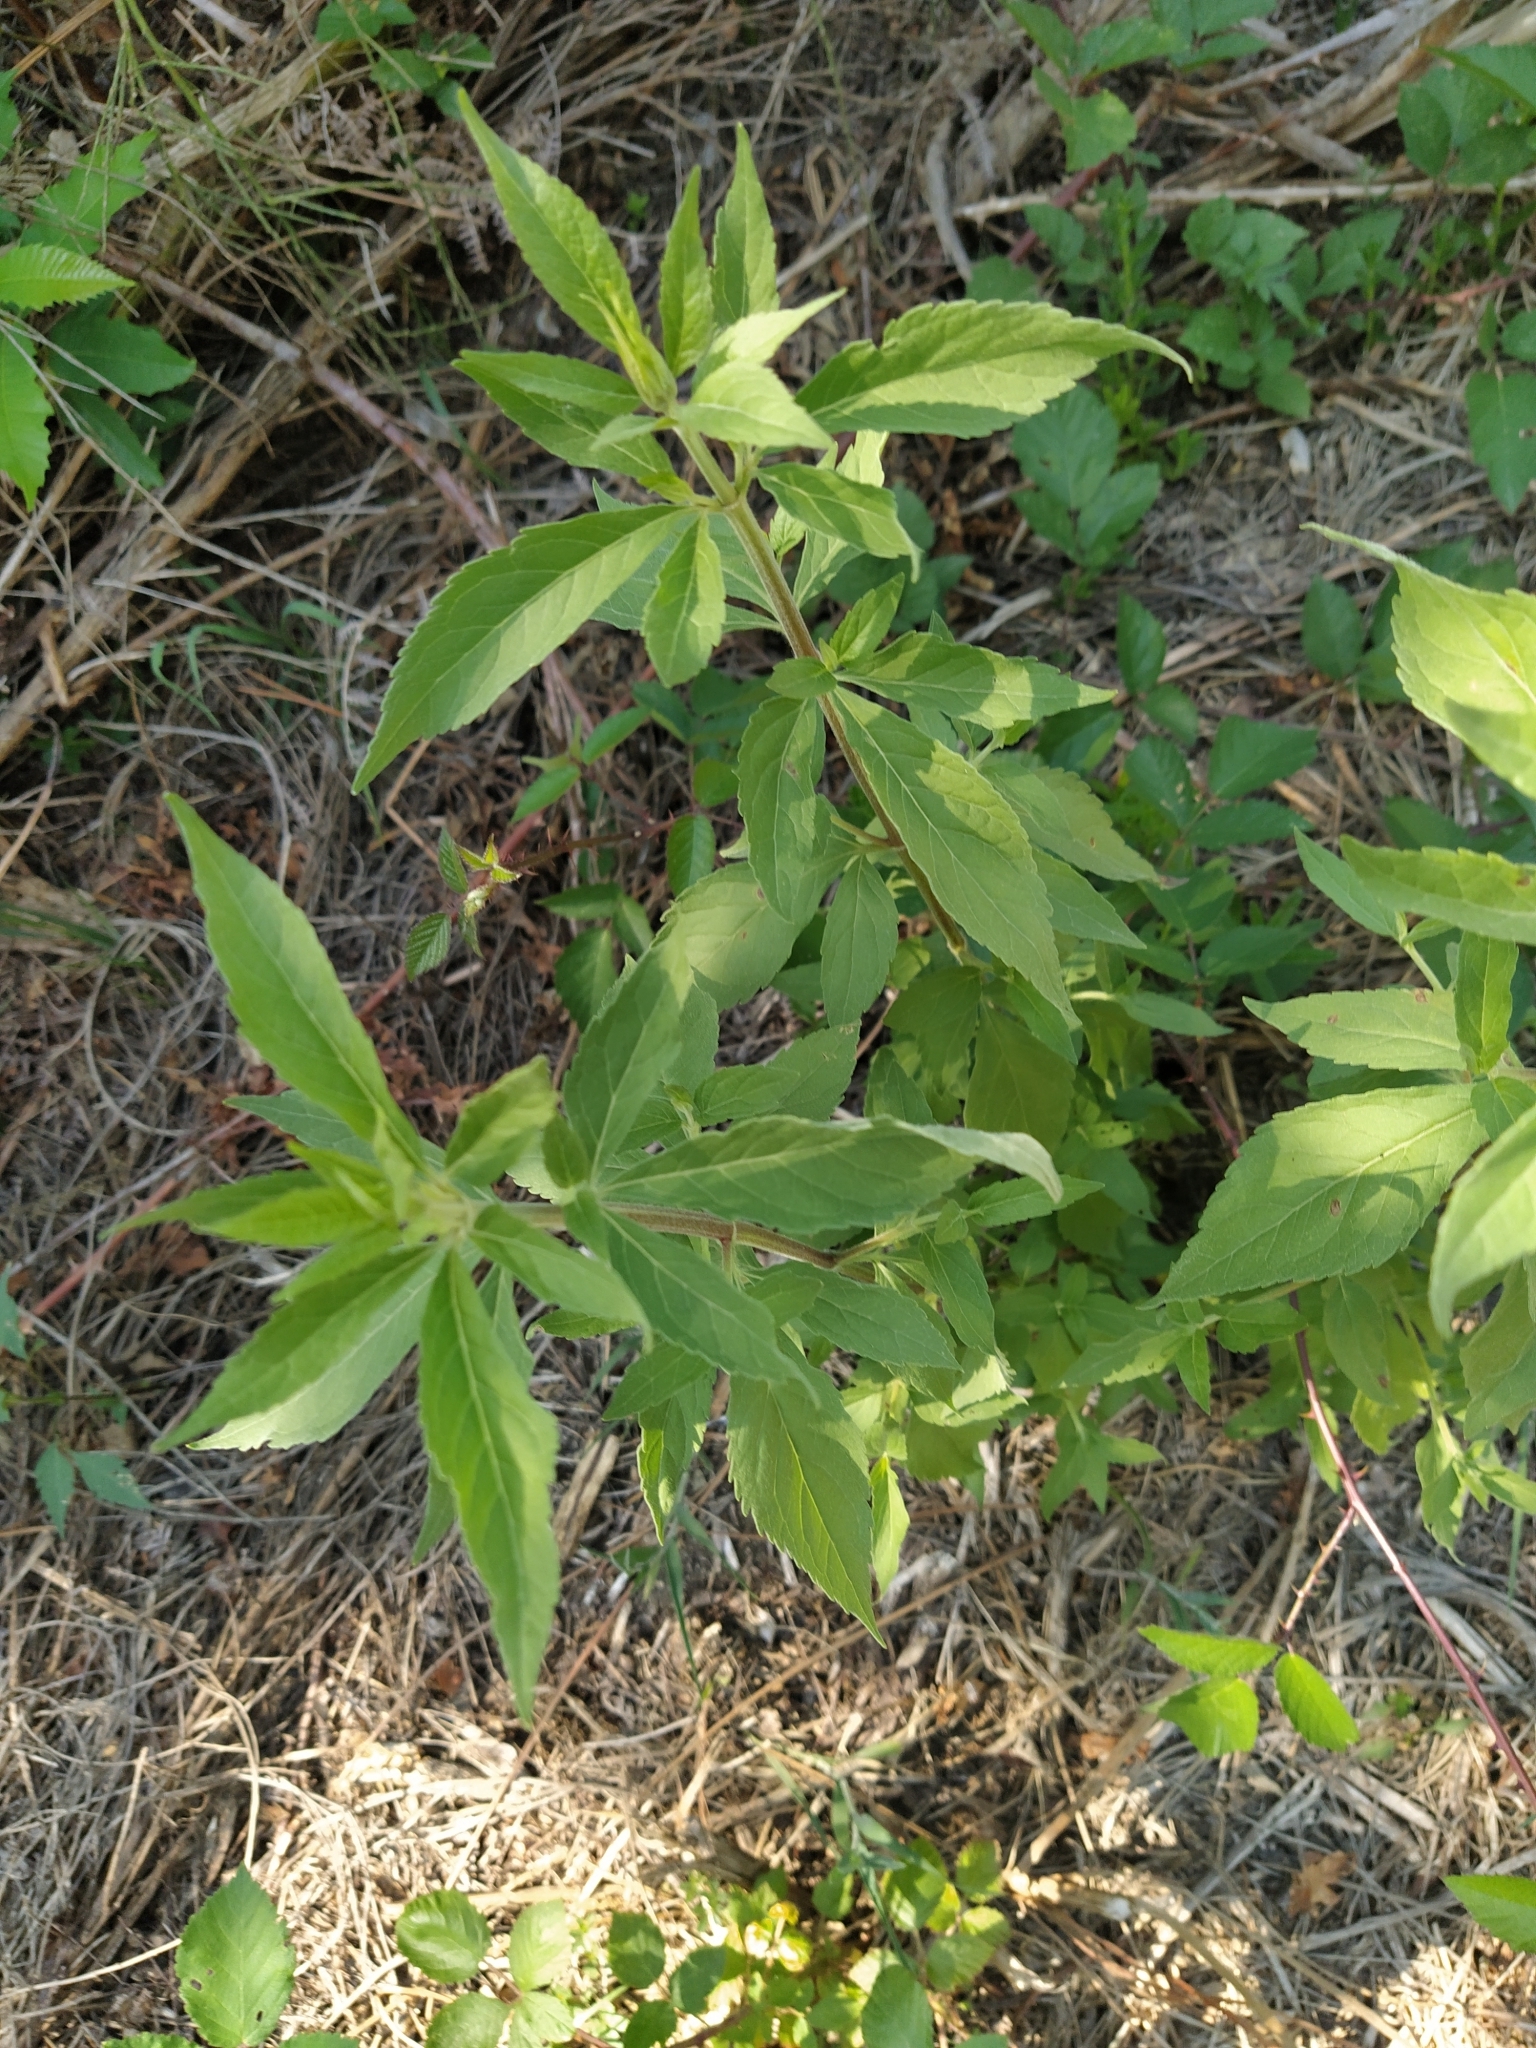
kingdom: Plantae
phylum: Tracheophyta
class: Magnoliopsida
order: Asterales
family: Asteraceae
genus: Eupatorium
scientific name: Eupatorium cannabinum
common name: Hemp-agrimony
